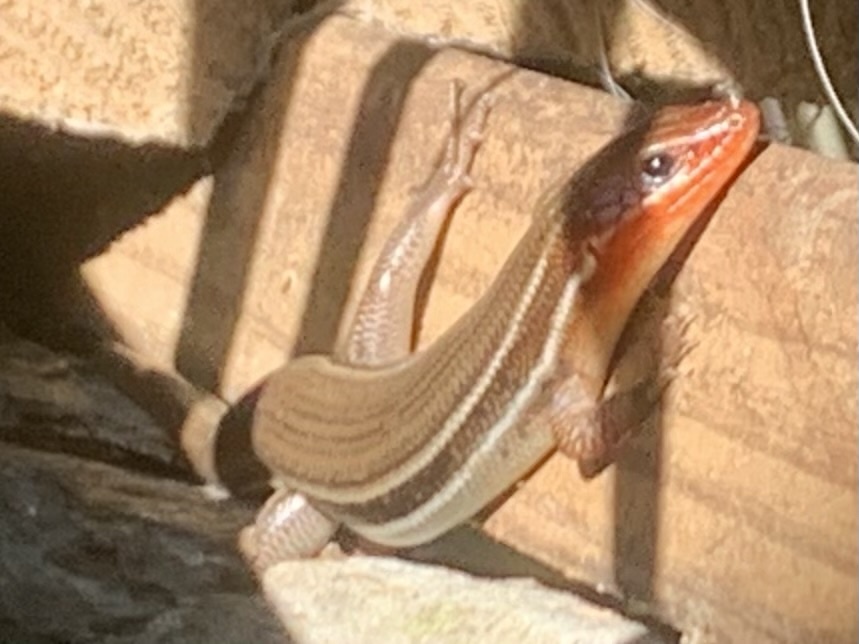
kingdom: Animalia
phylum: Chordata
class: Squamata
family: Scincidae
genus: Plestiodon
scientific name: Plestiodon inexpectatus
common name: Southeastern five-lined skink
